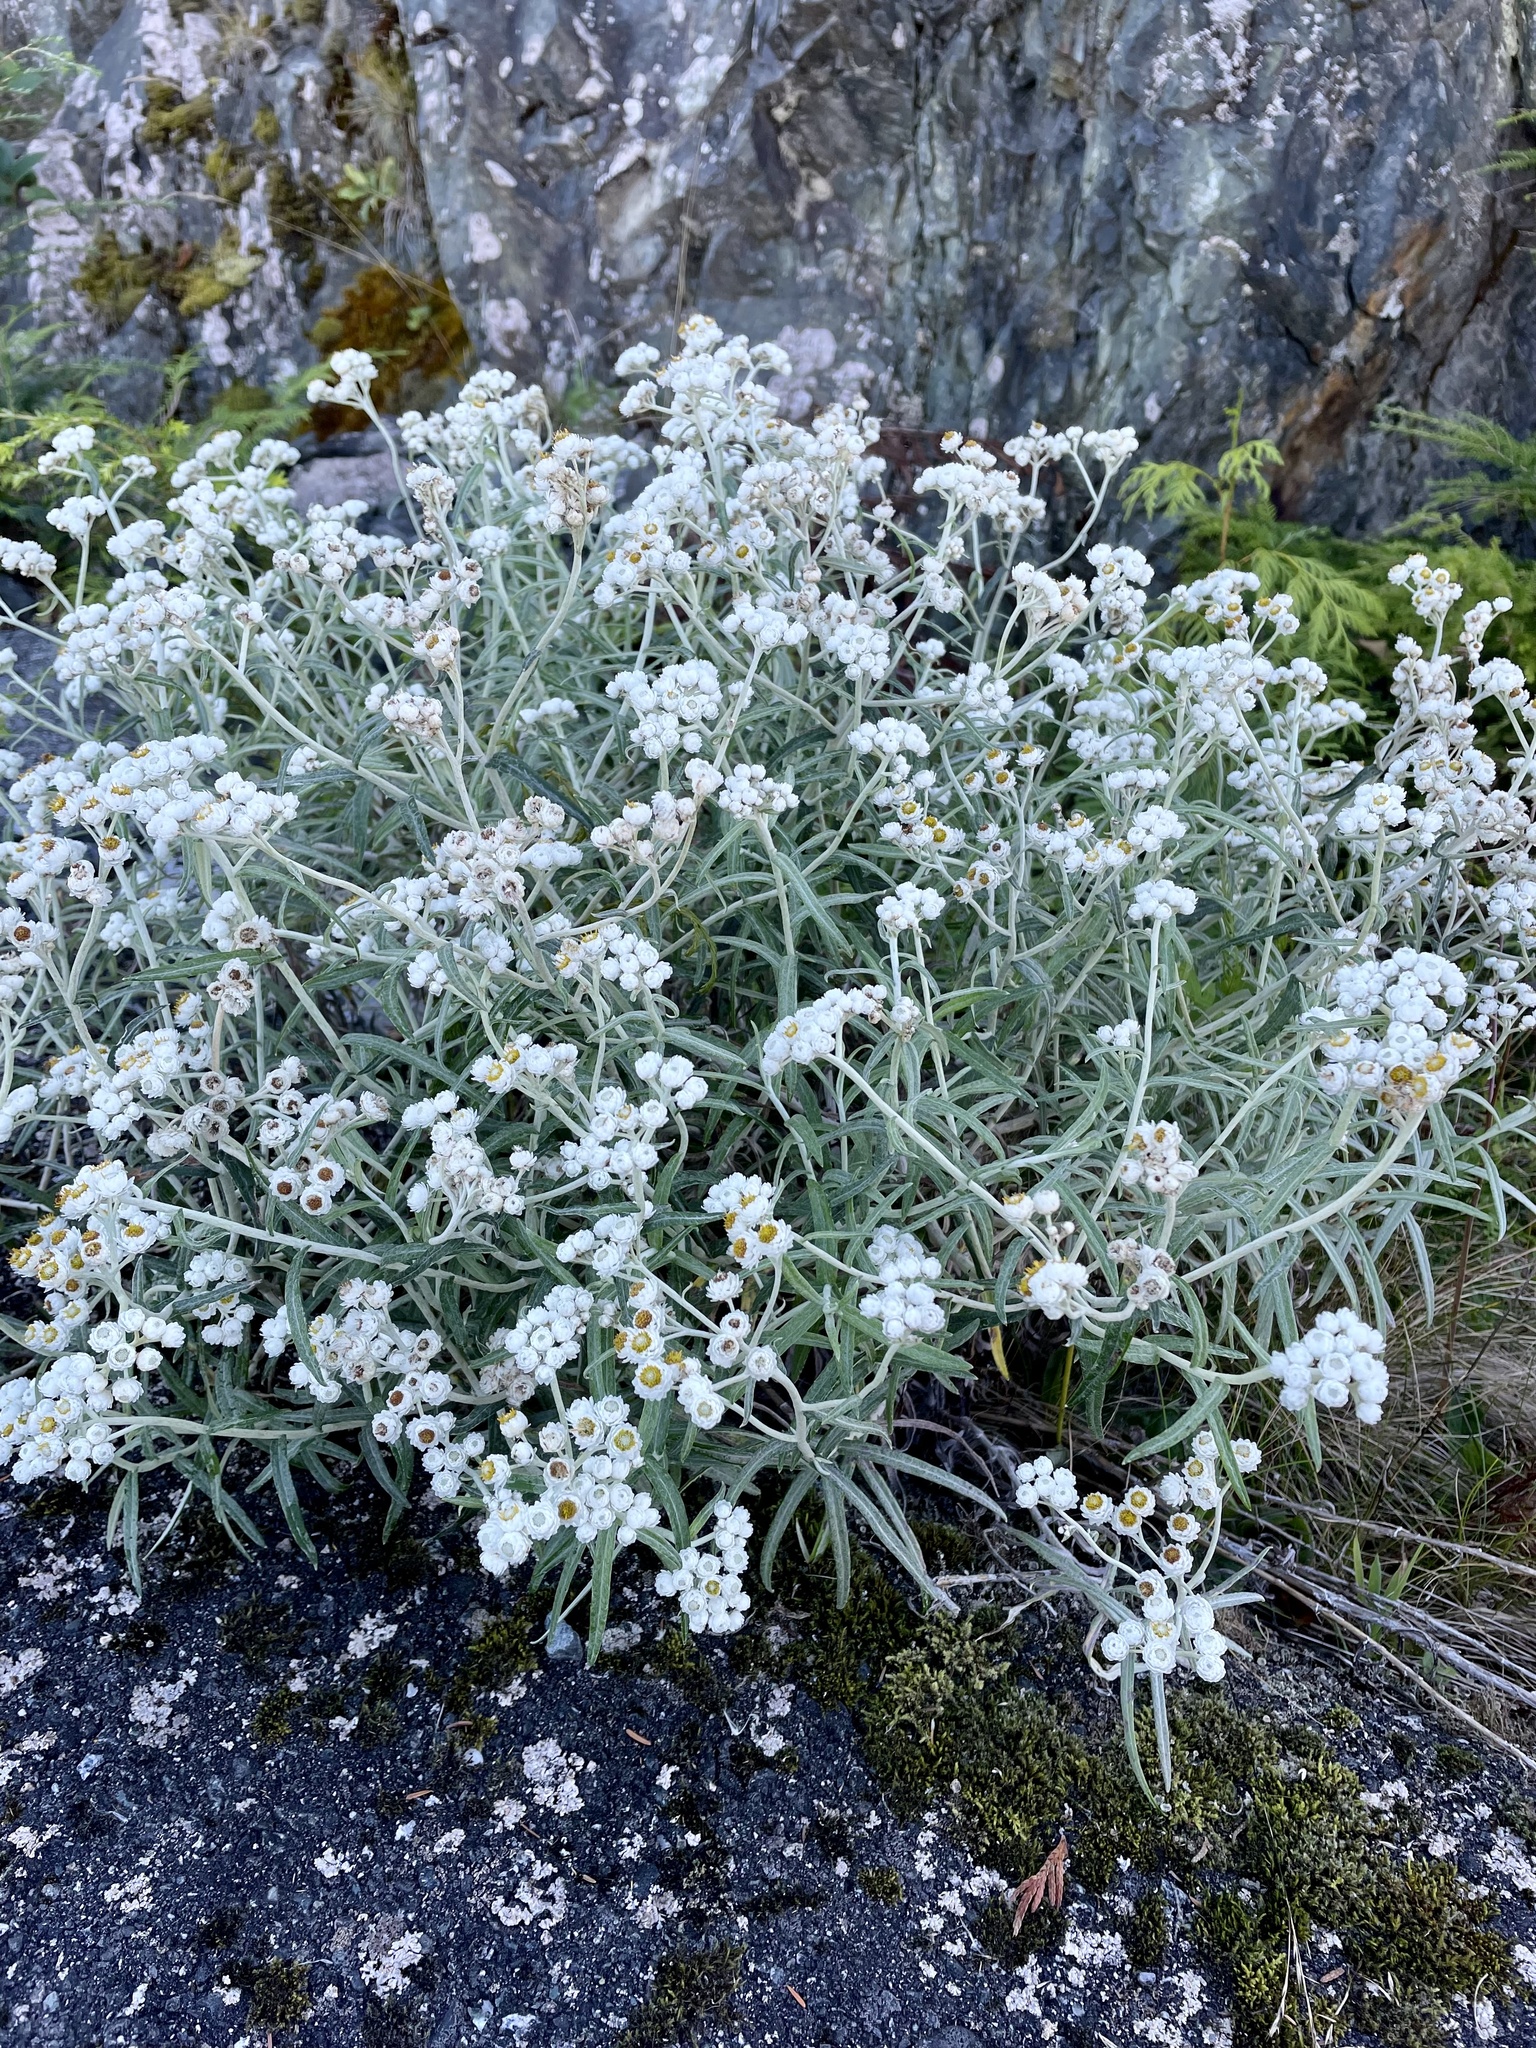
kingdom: Plantae
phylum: Tracheophyta
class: Magnoliopsida
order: Asterales
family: Asteraceae
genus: Anaphalis
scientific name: Anaphalis margaritacea
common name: Pearly everlasting
